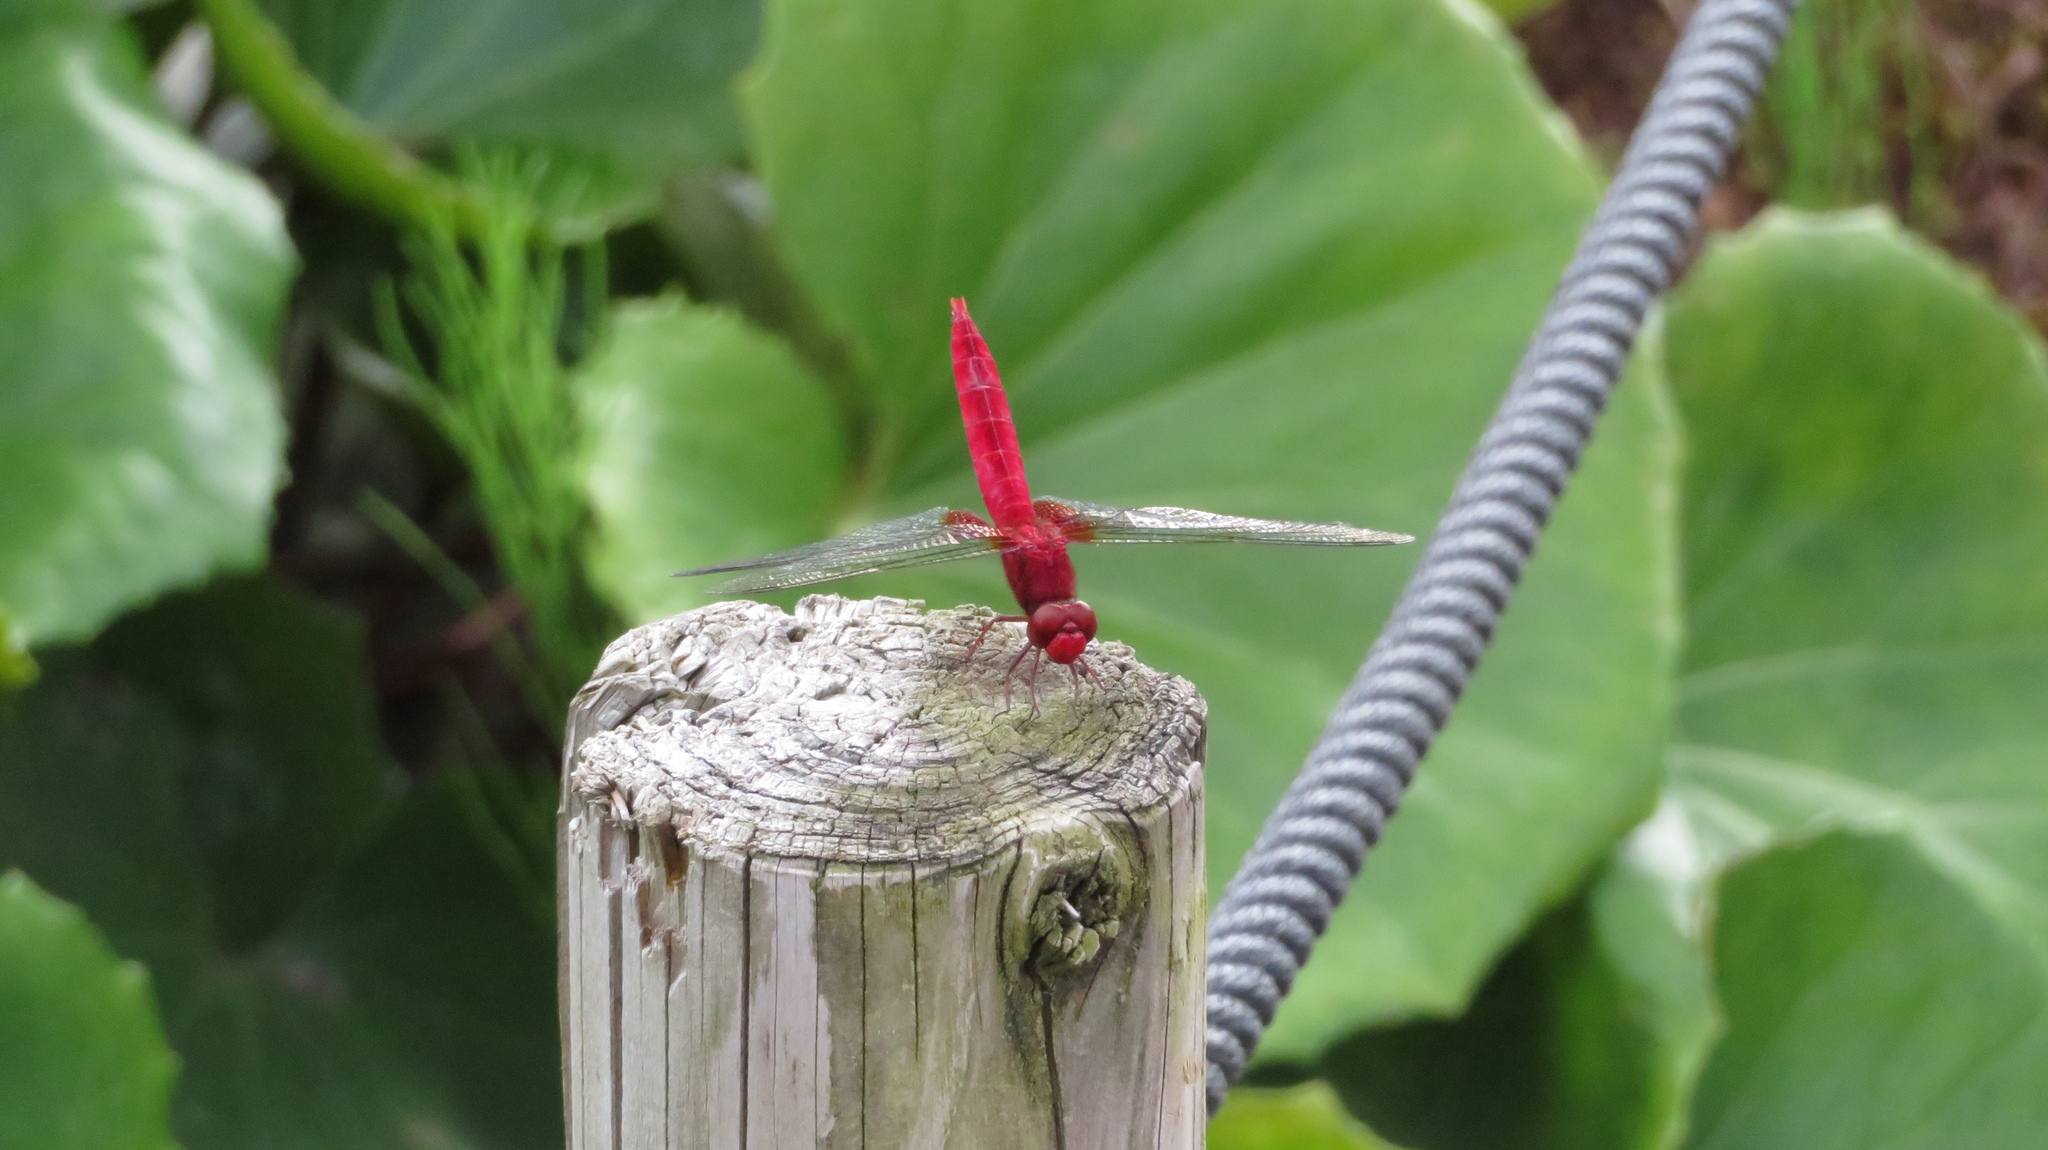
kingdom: Animalia
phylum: Arthropoda
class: Insecta
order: Odonata
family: Libellulidae
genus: Crocothemis
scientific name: Crocothemis servilia
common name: Scarlet skimmer
